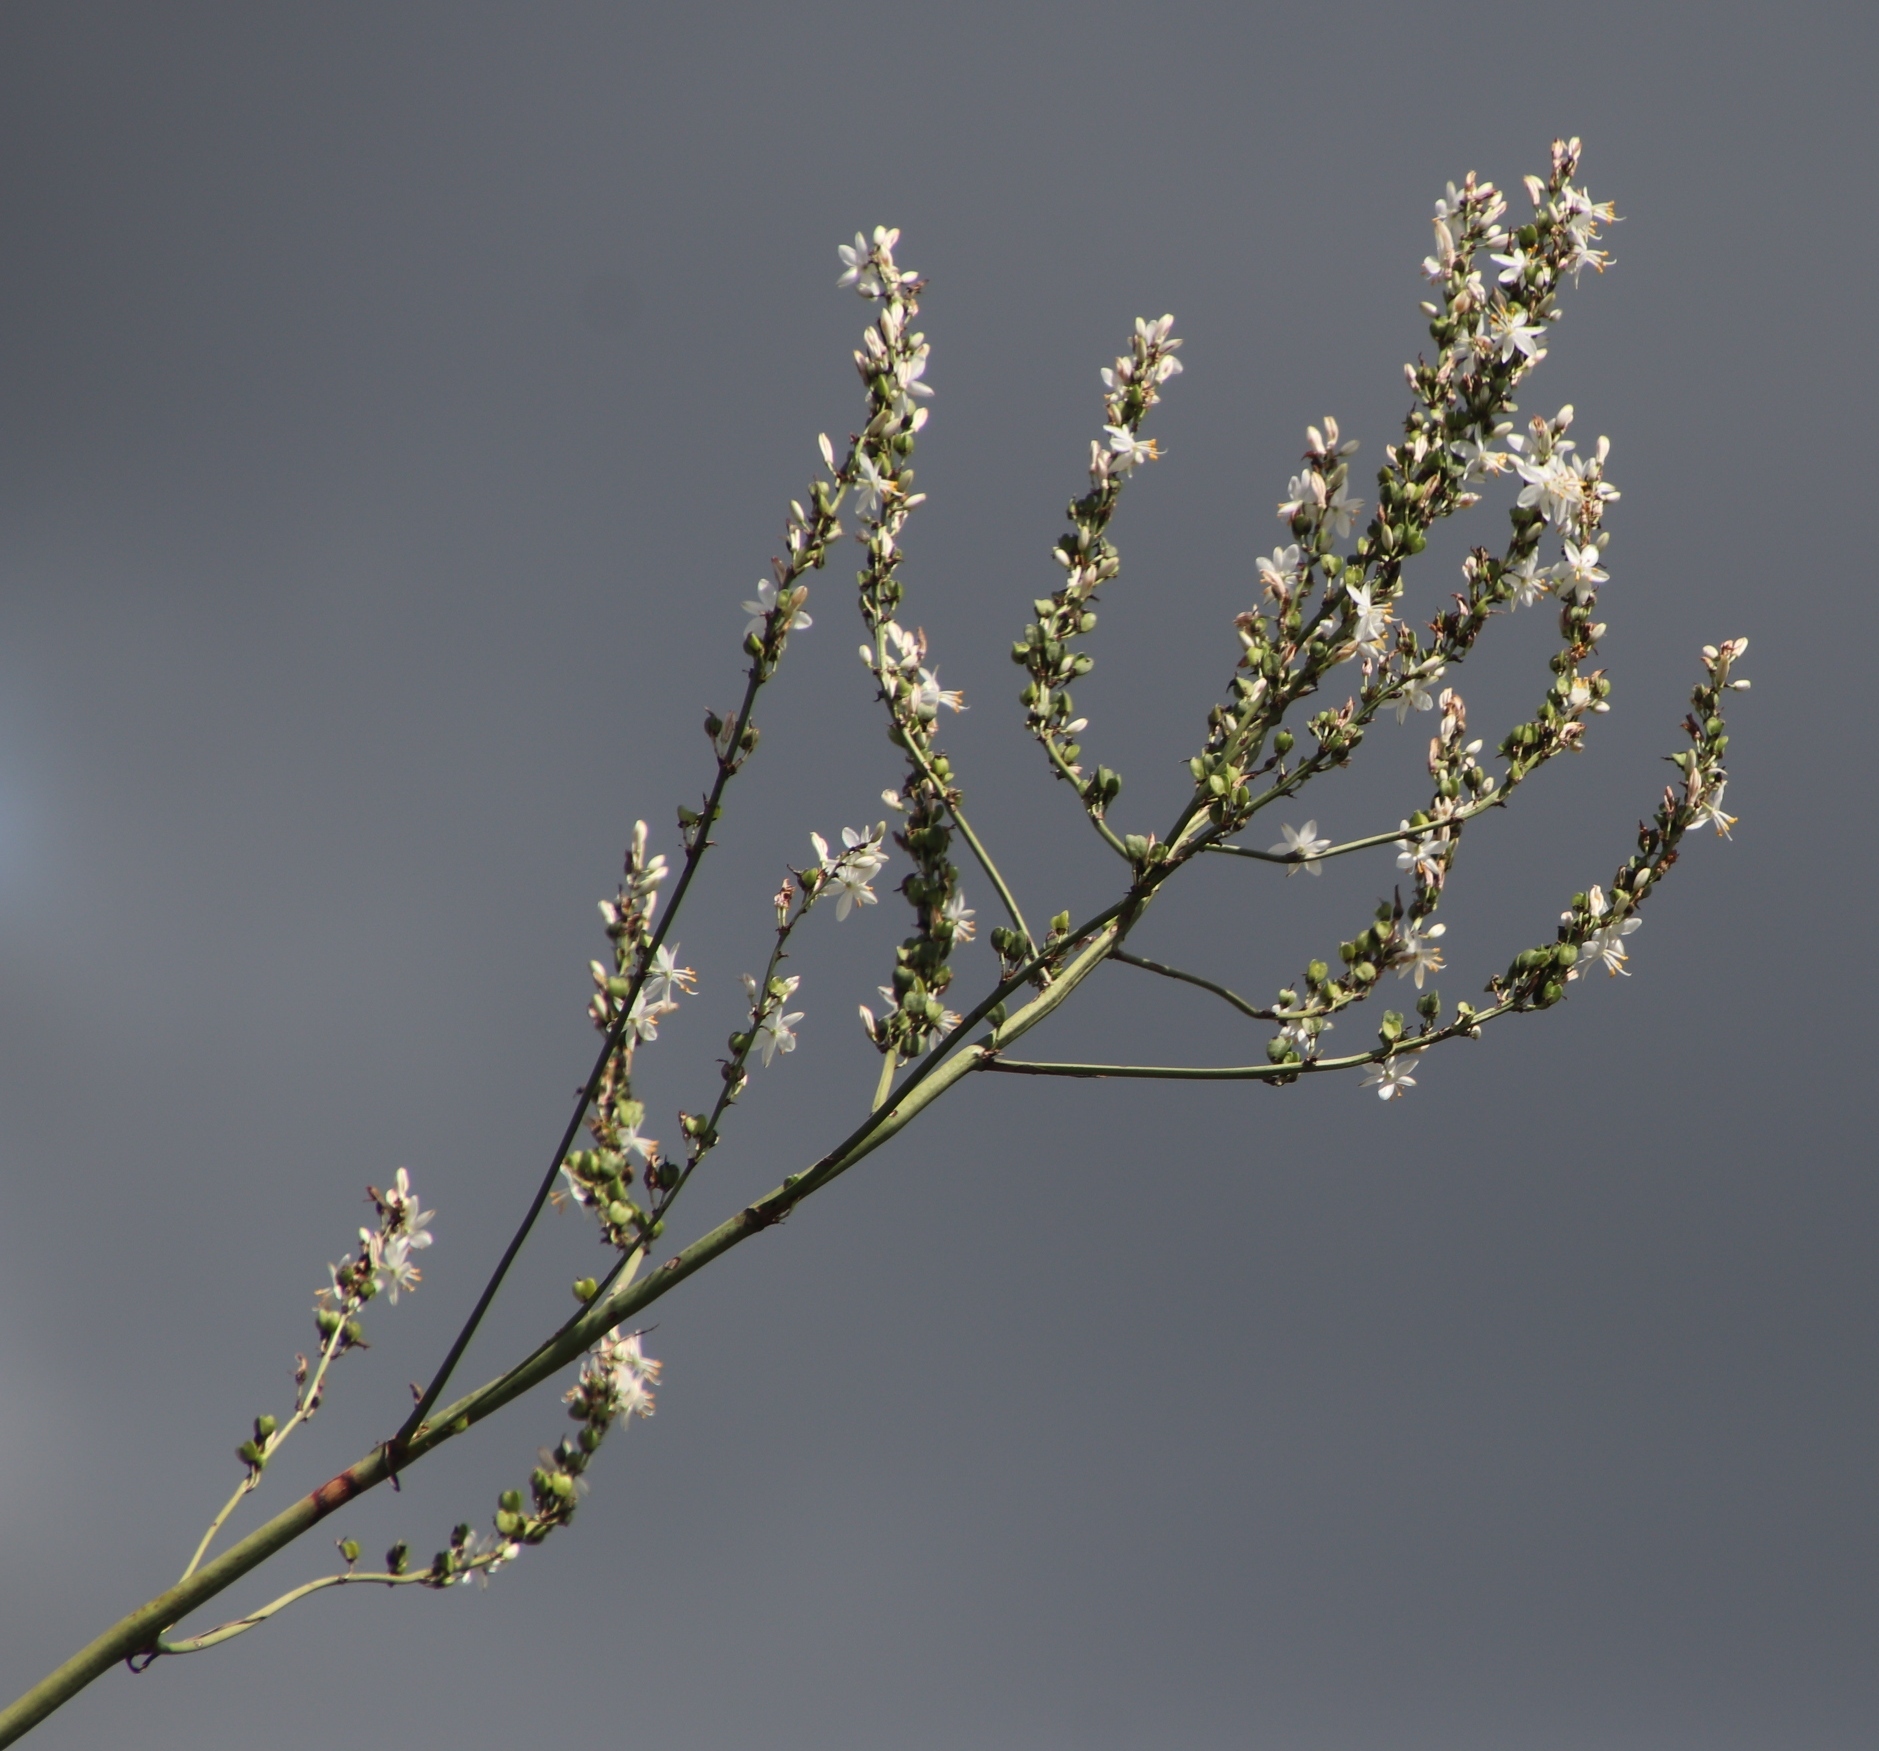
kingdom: Plantae
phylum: Tracheophyta
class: Liliopsida
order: Asparagales
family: Asparagaceae
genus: Chlorophytum
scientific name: Chlorophytum krookianum
